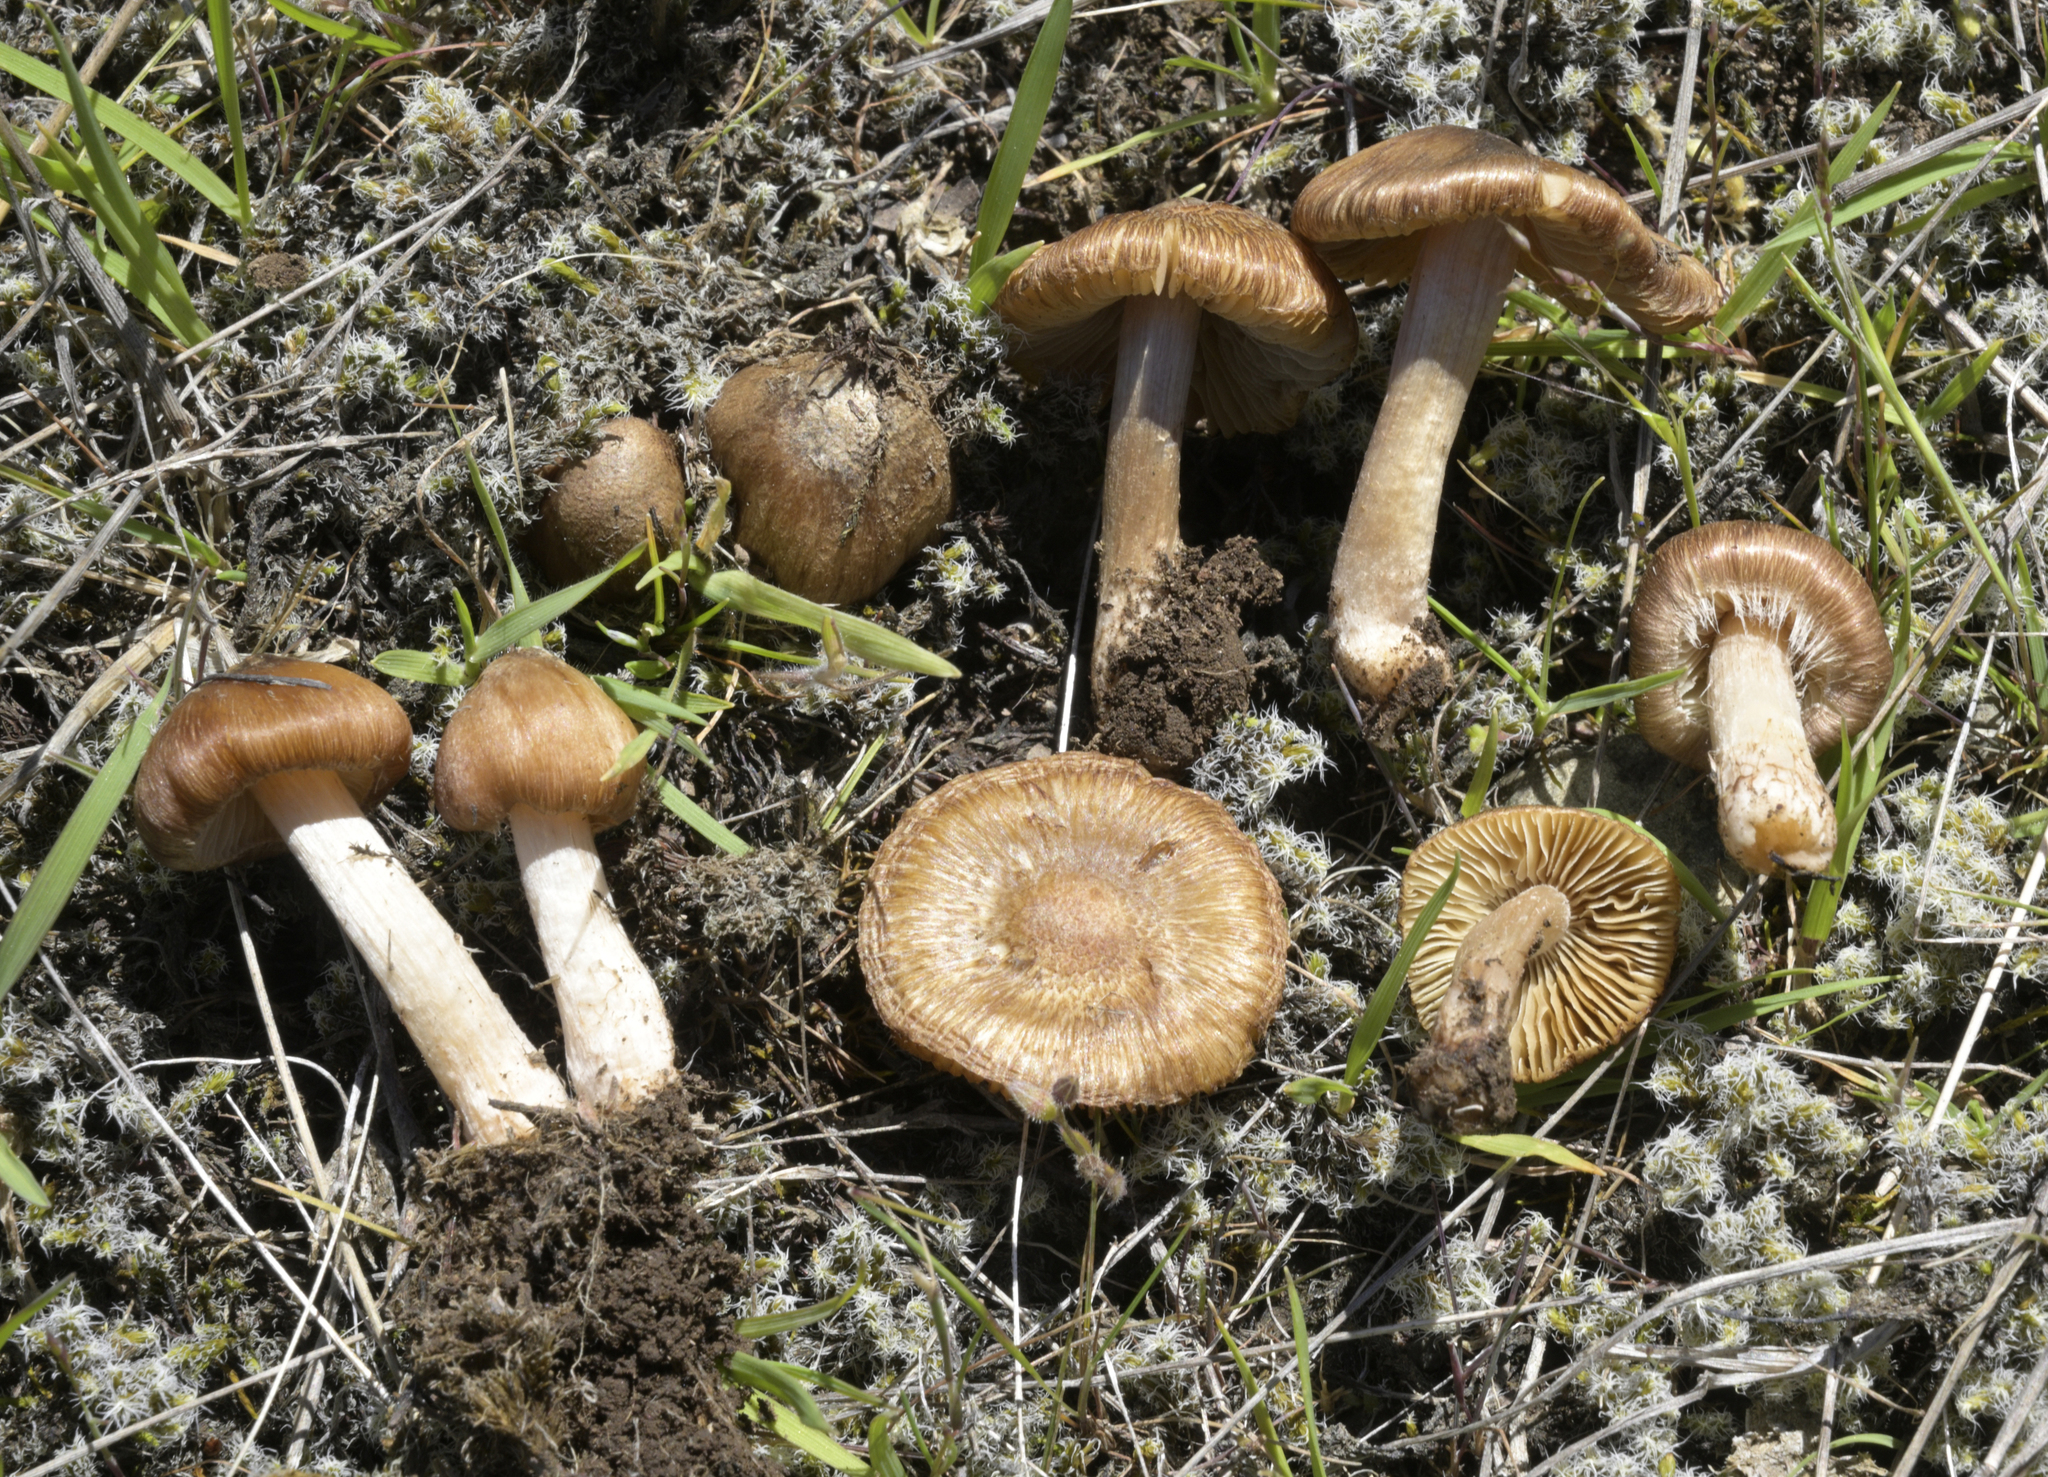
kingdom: Fungi
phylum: Basidiomycota
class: Agaricomycetes
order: Agaricales
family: Inocybaceae
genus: Inocybe
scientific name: Inocybe leptospermi
